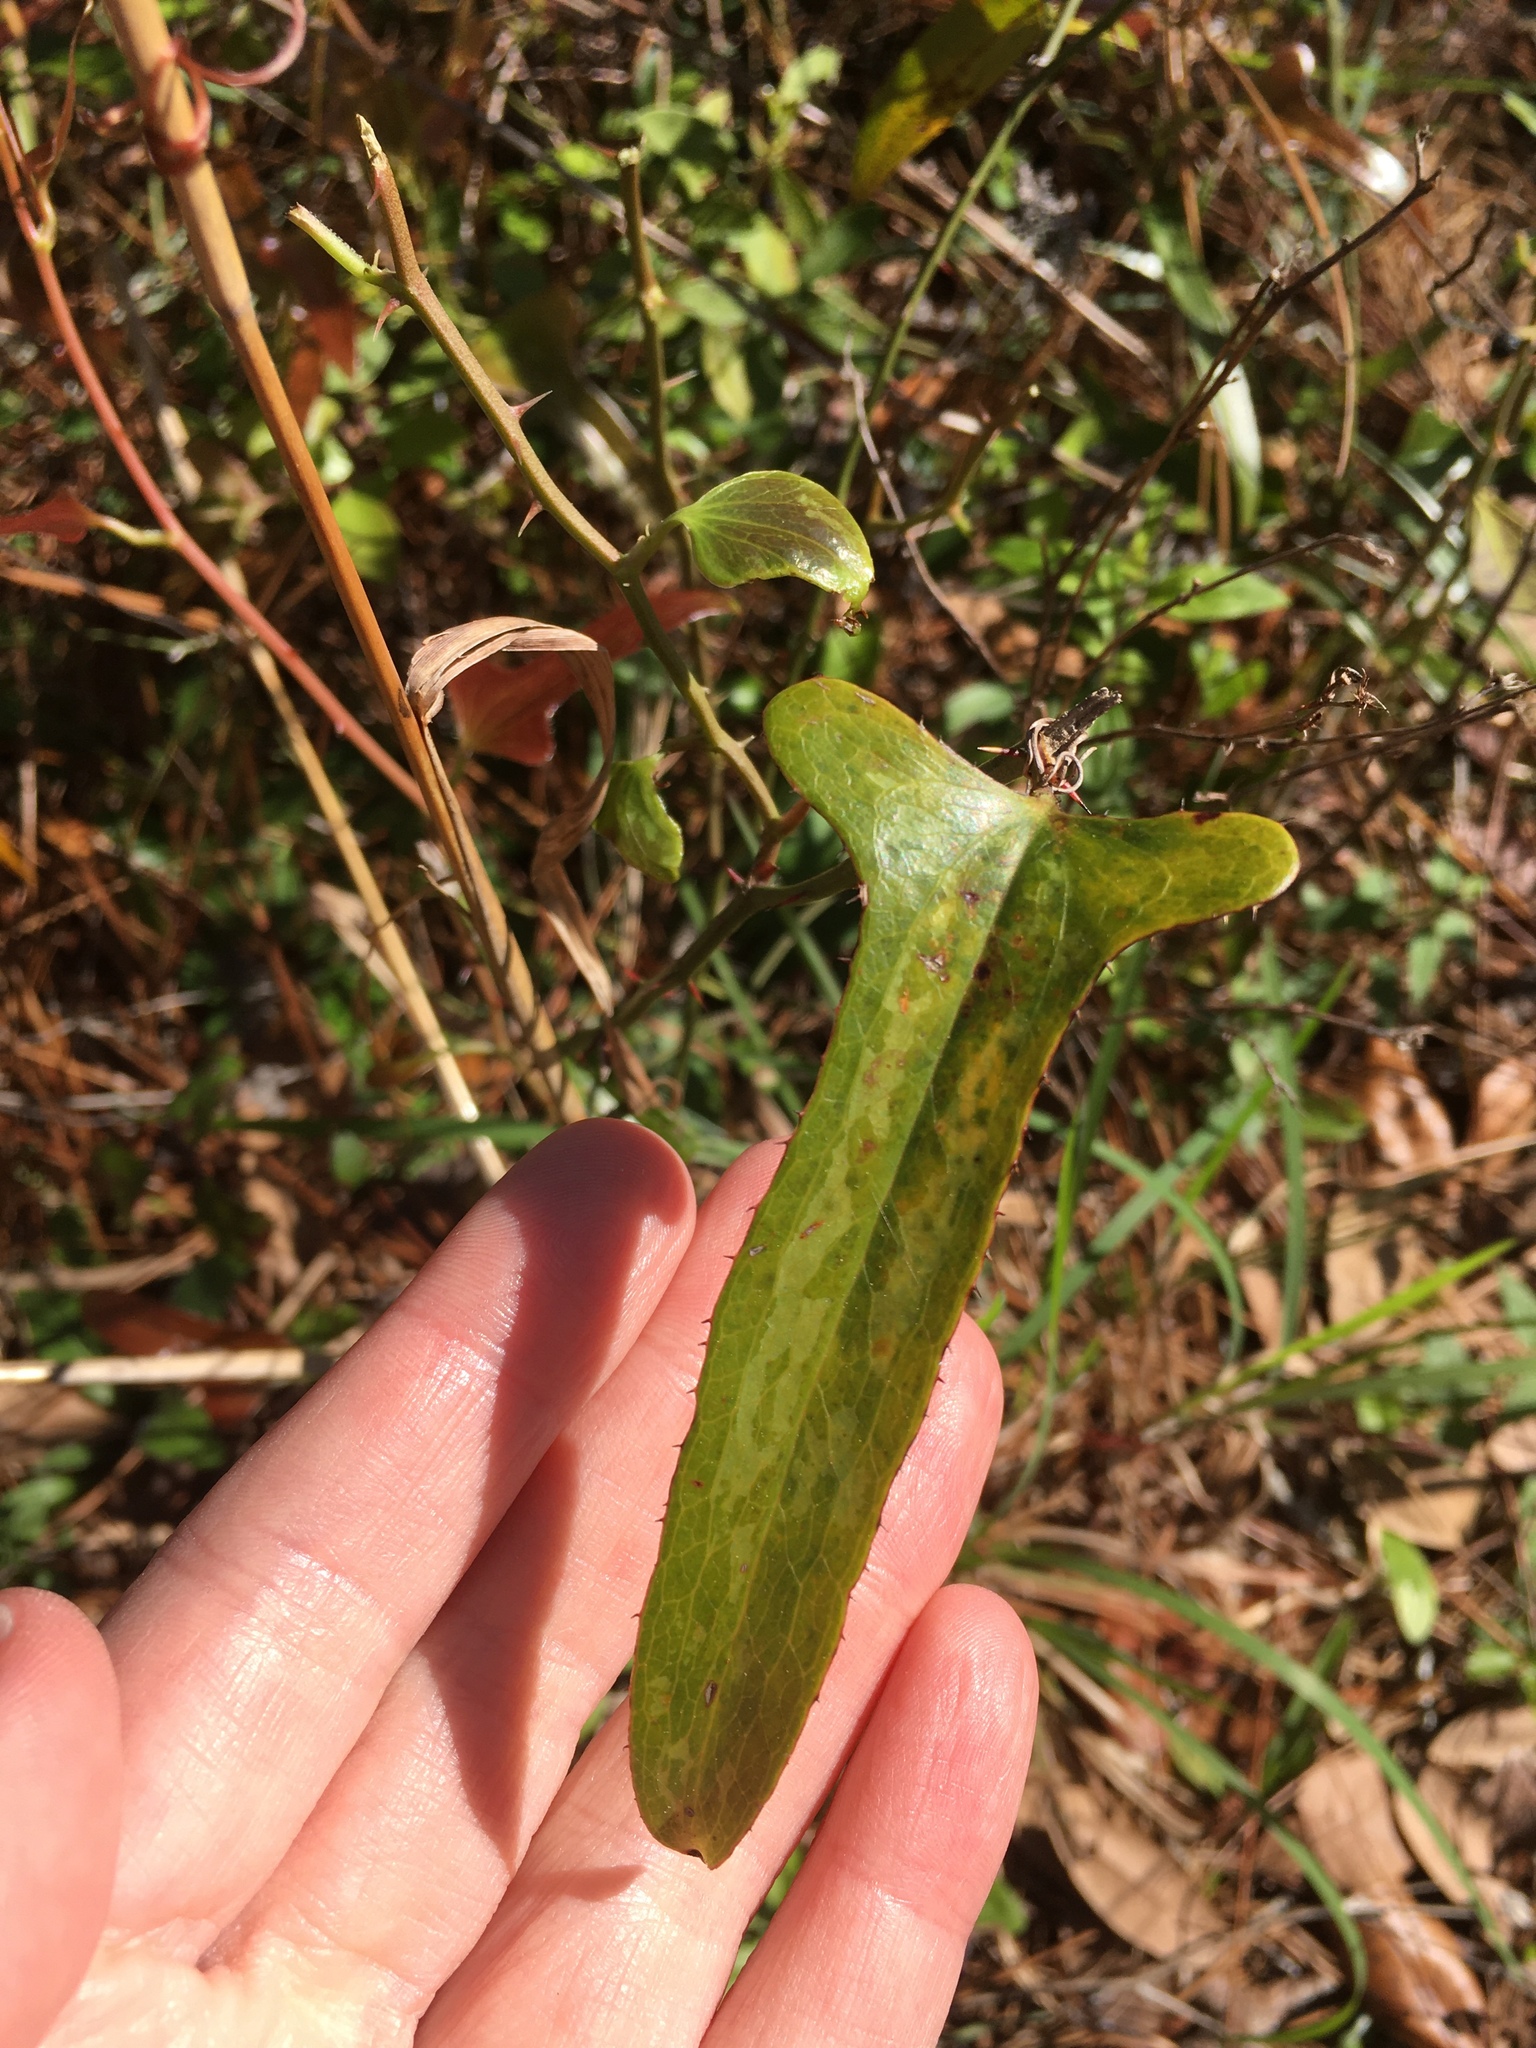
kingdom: Plantae
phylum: Tracheophyta
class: Liliopsida
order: Liliales
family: Smilacaceae
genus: Smilax
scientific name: Smilax bona-nox
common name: Catbrier
